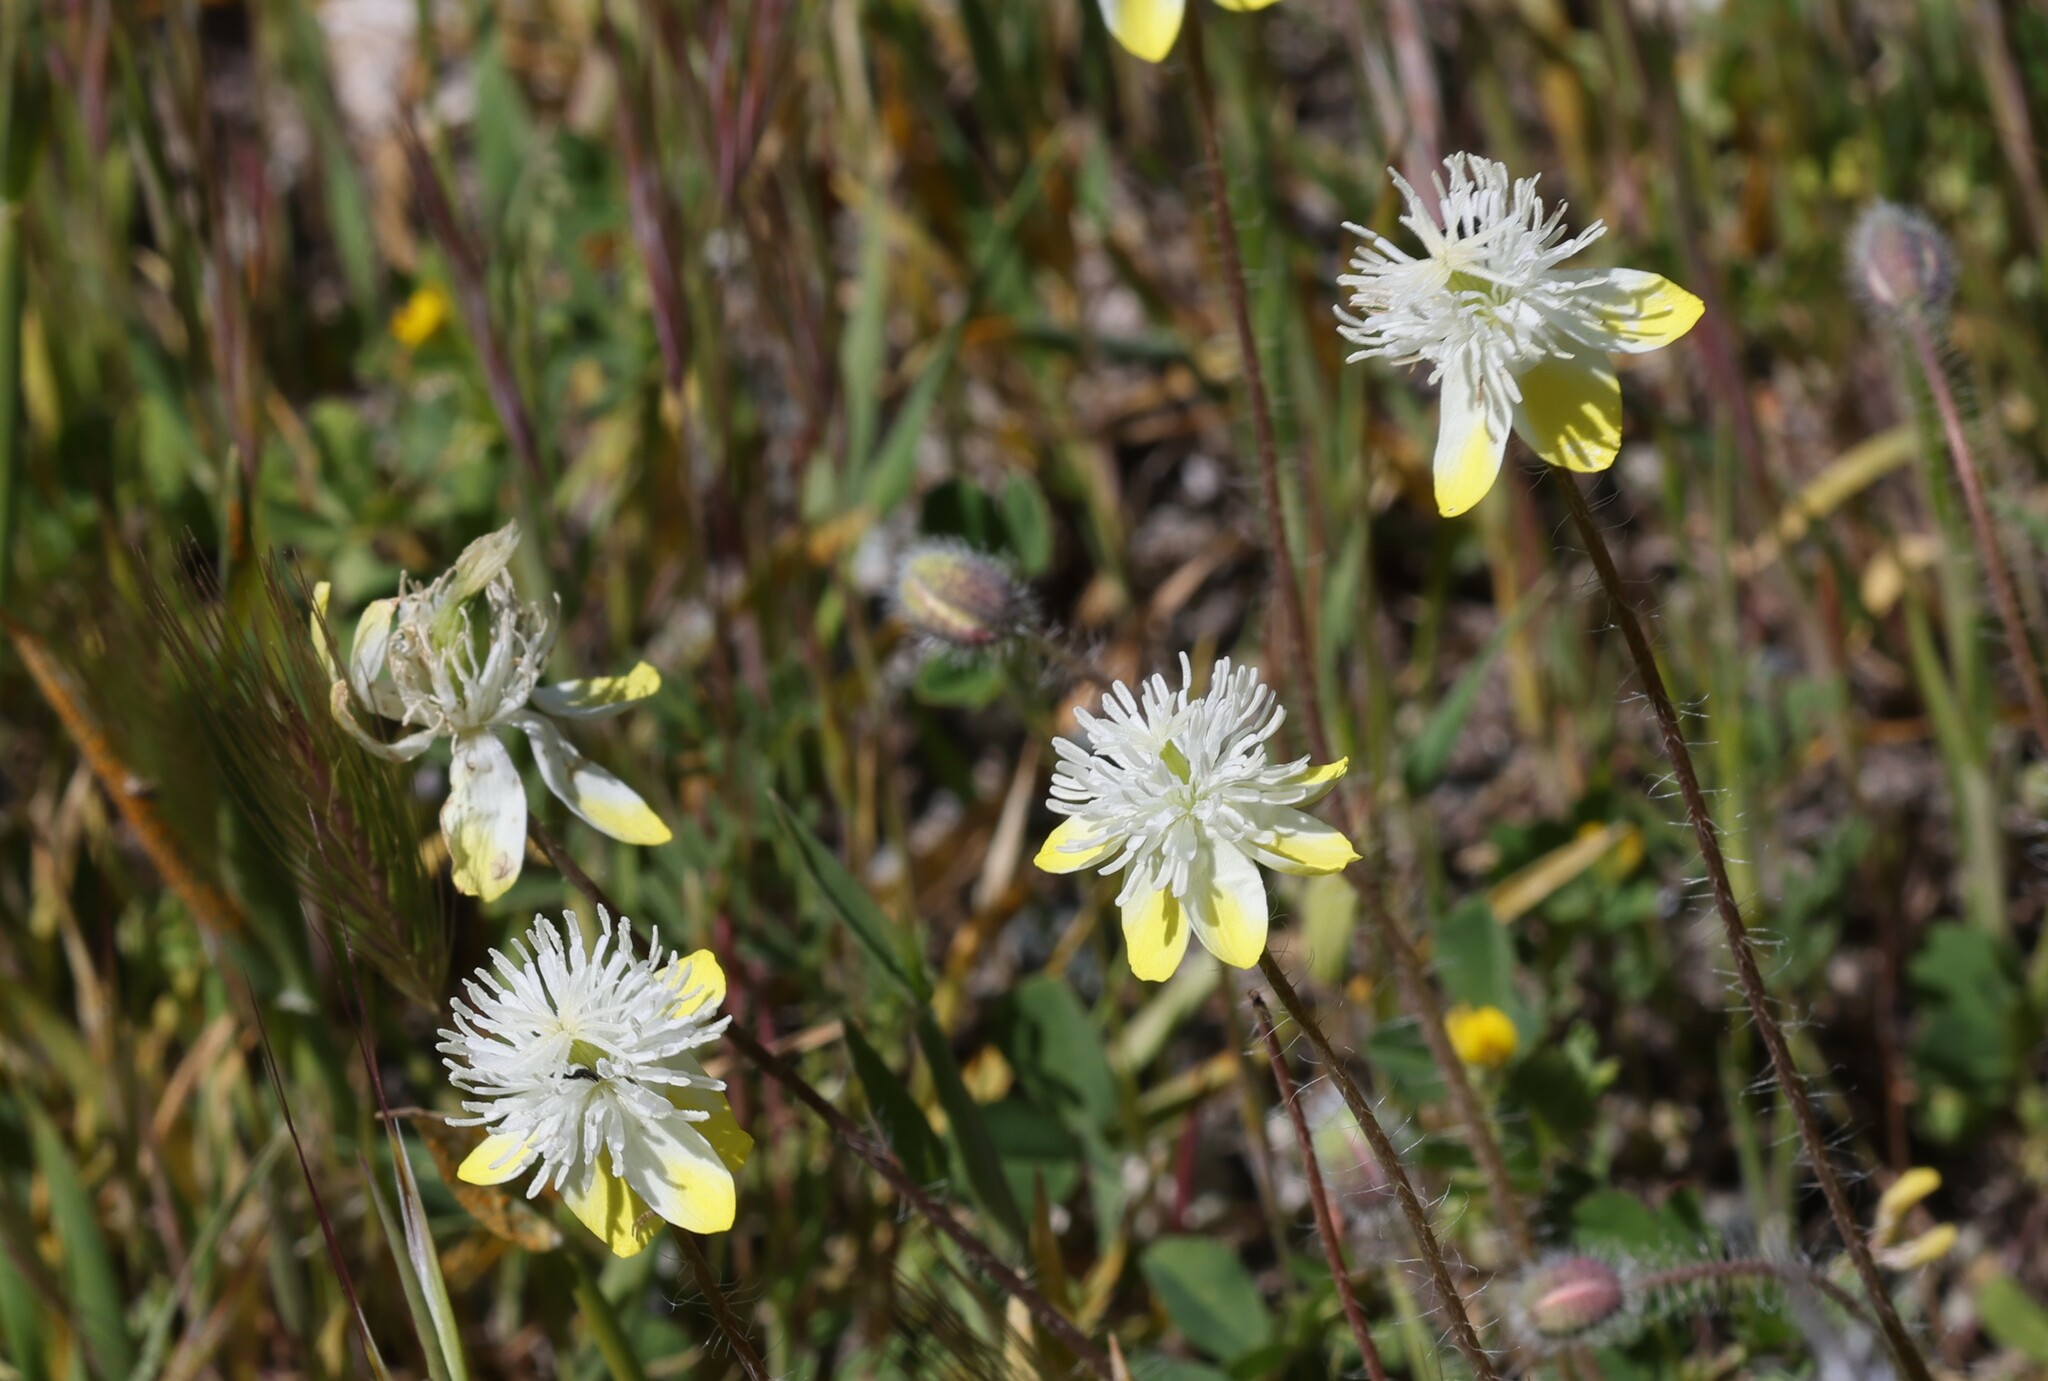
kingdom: Plantae
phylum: Tracheophyta
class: Magnoliopsida
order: Ranunculales
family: Papaveraceae
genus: Platystemon
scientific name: Platystemon californicus
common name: Cream-cups
